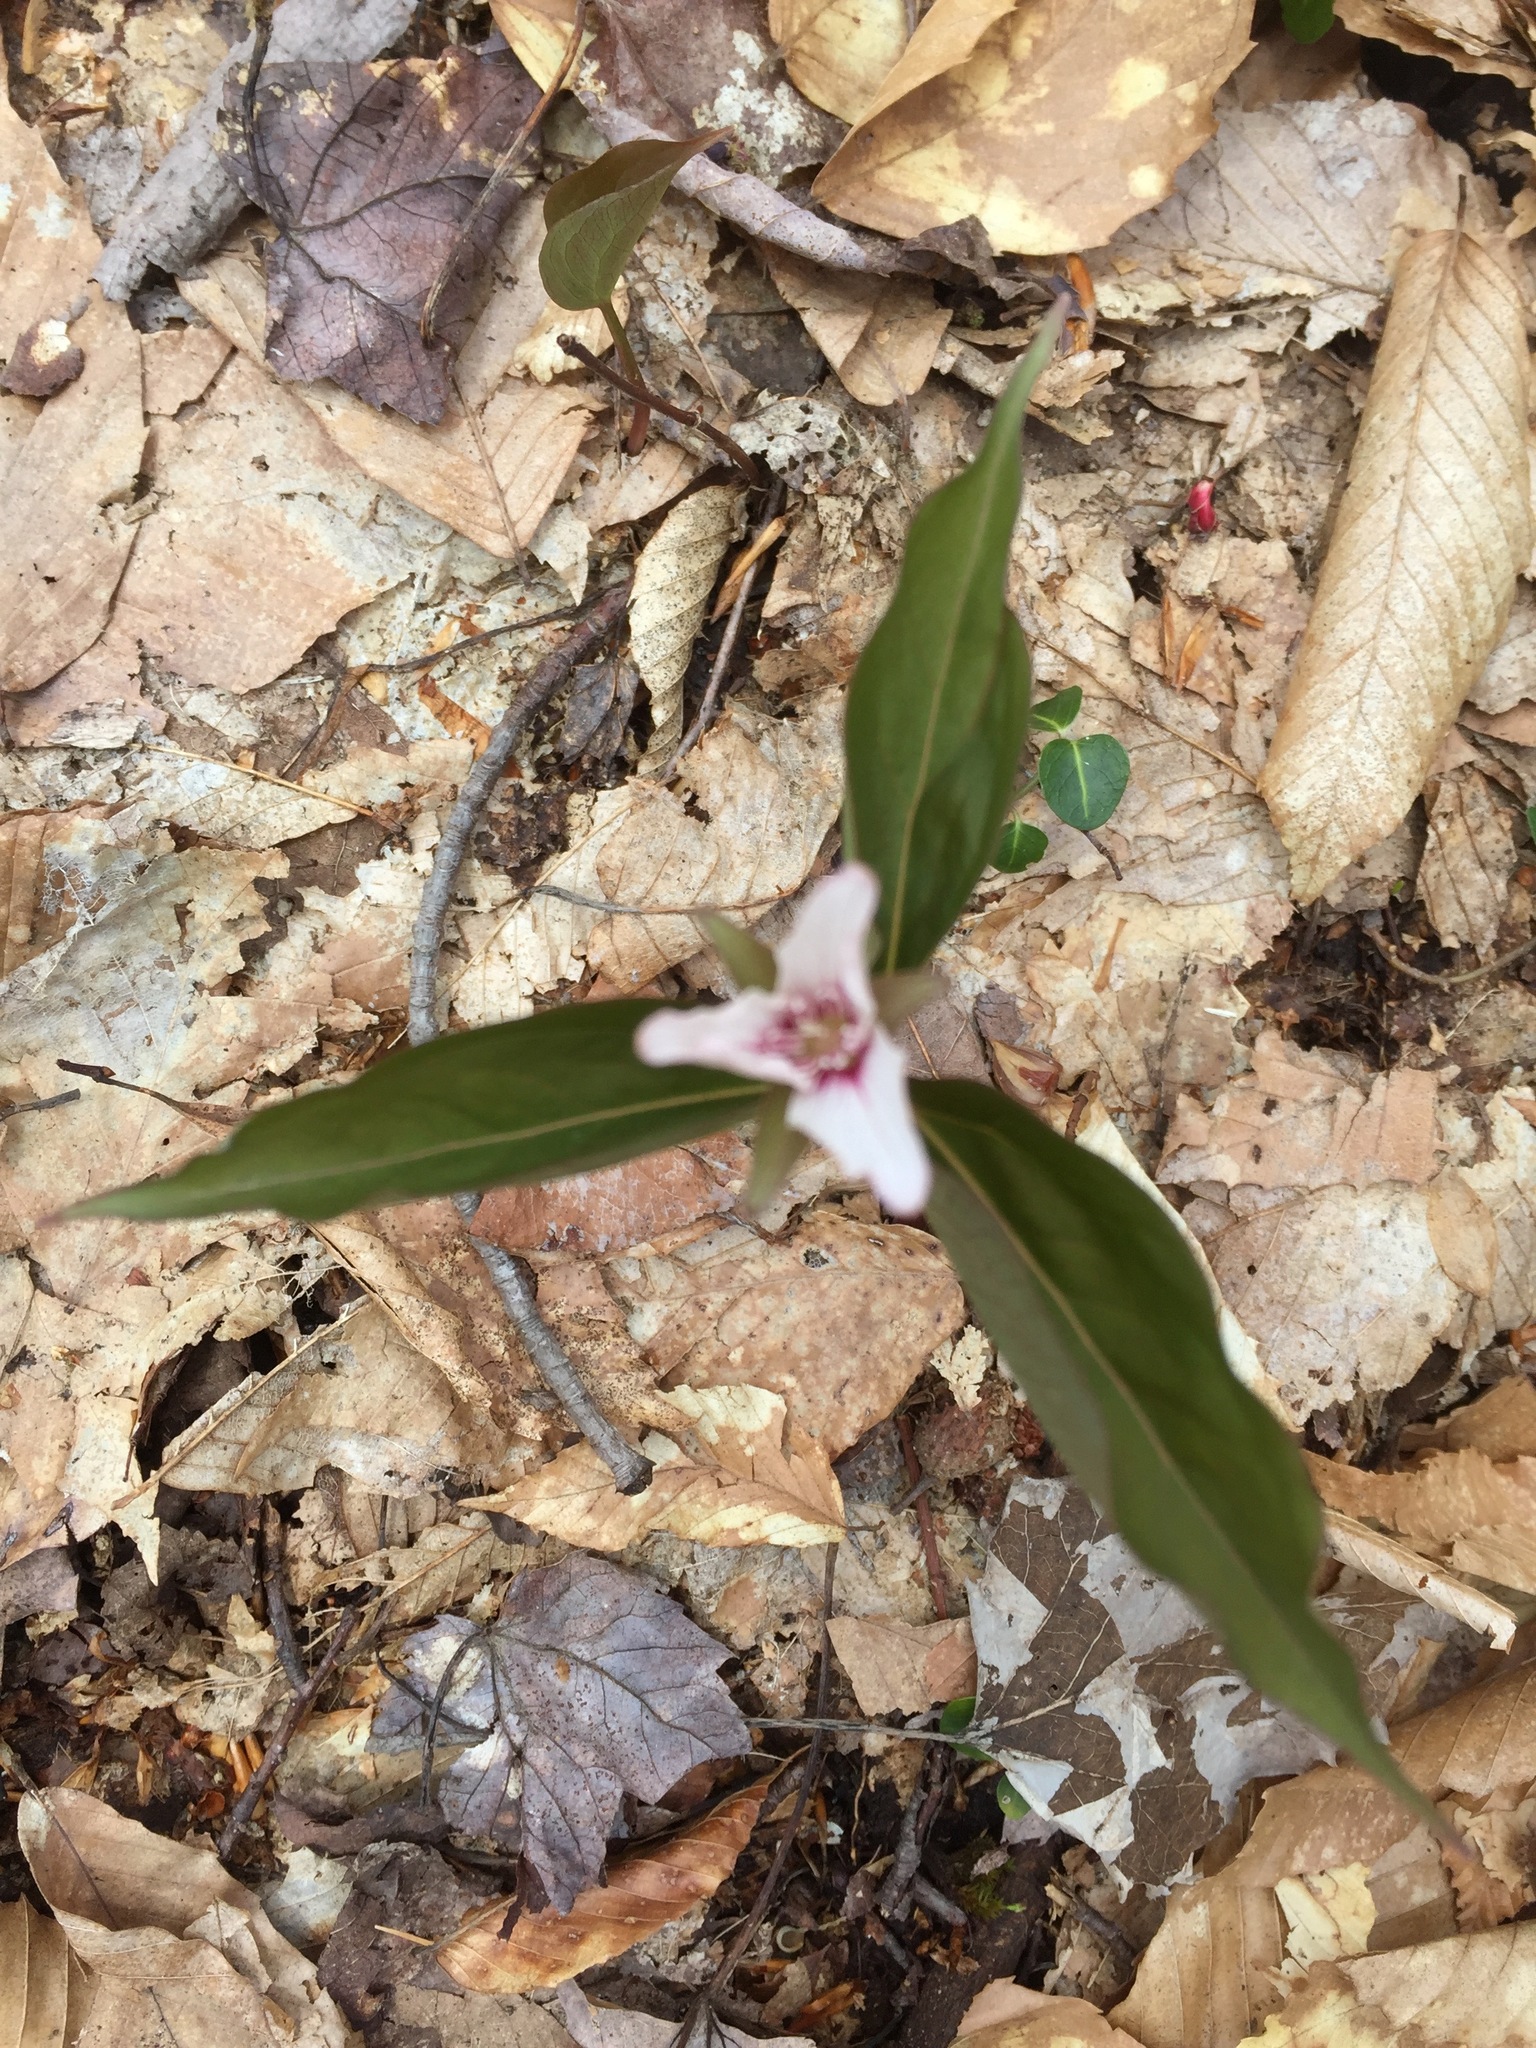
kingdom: Plantae
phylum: Tracheophyta
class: Liliopsida
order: Liliales
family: Melanthiaceae
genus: Trillium
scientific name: Trillium undulatum
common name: Paint trillium
